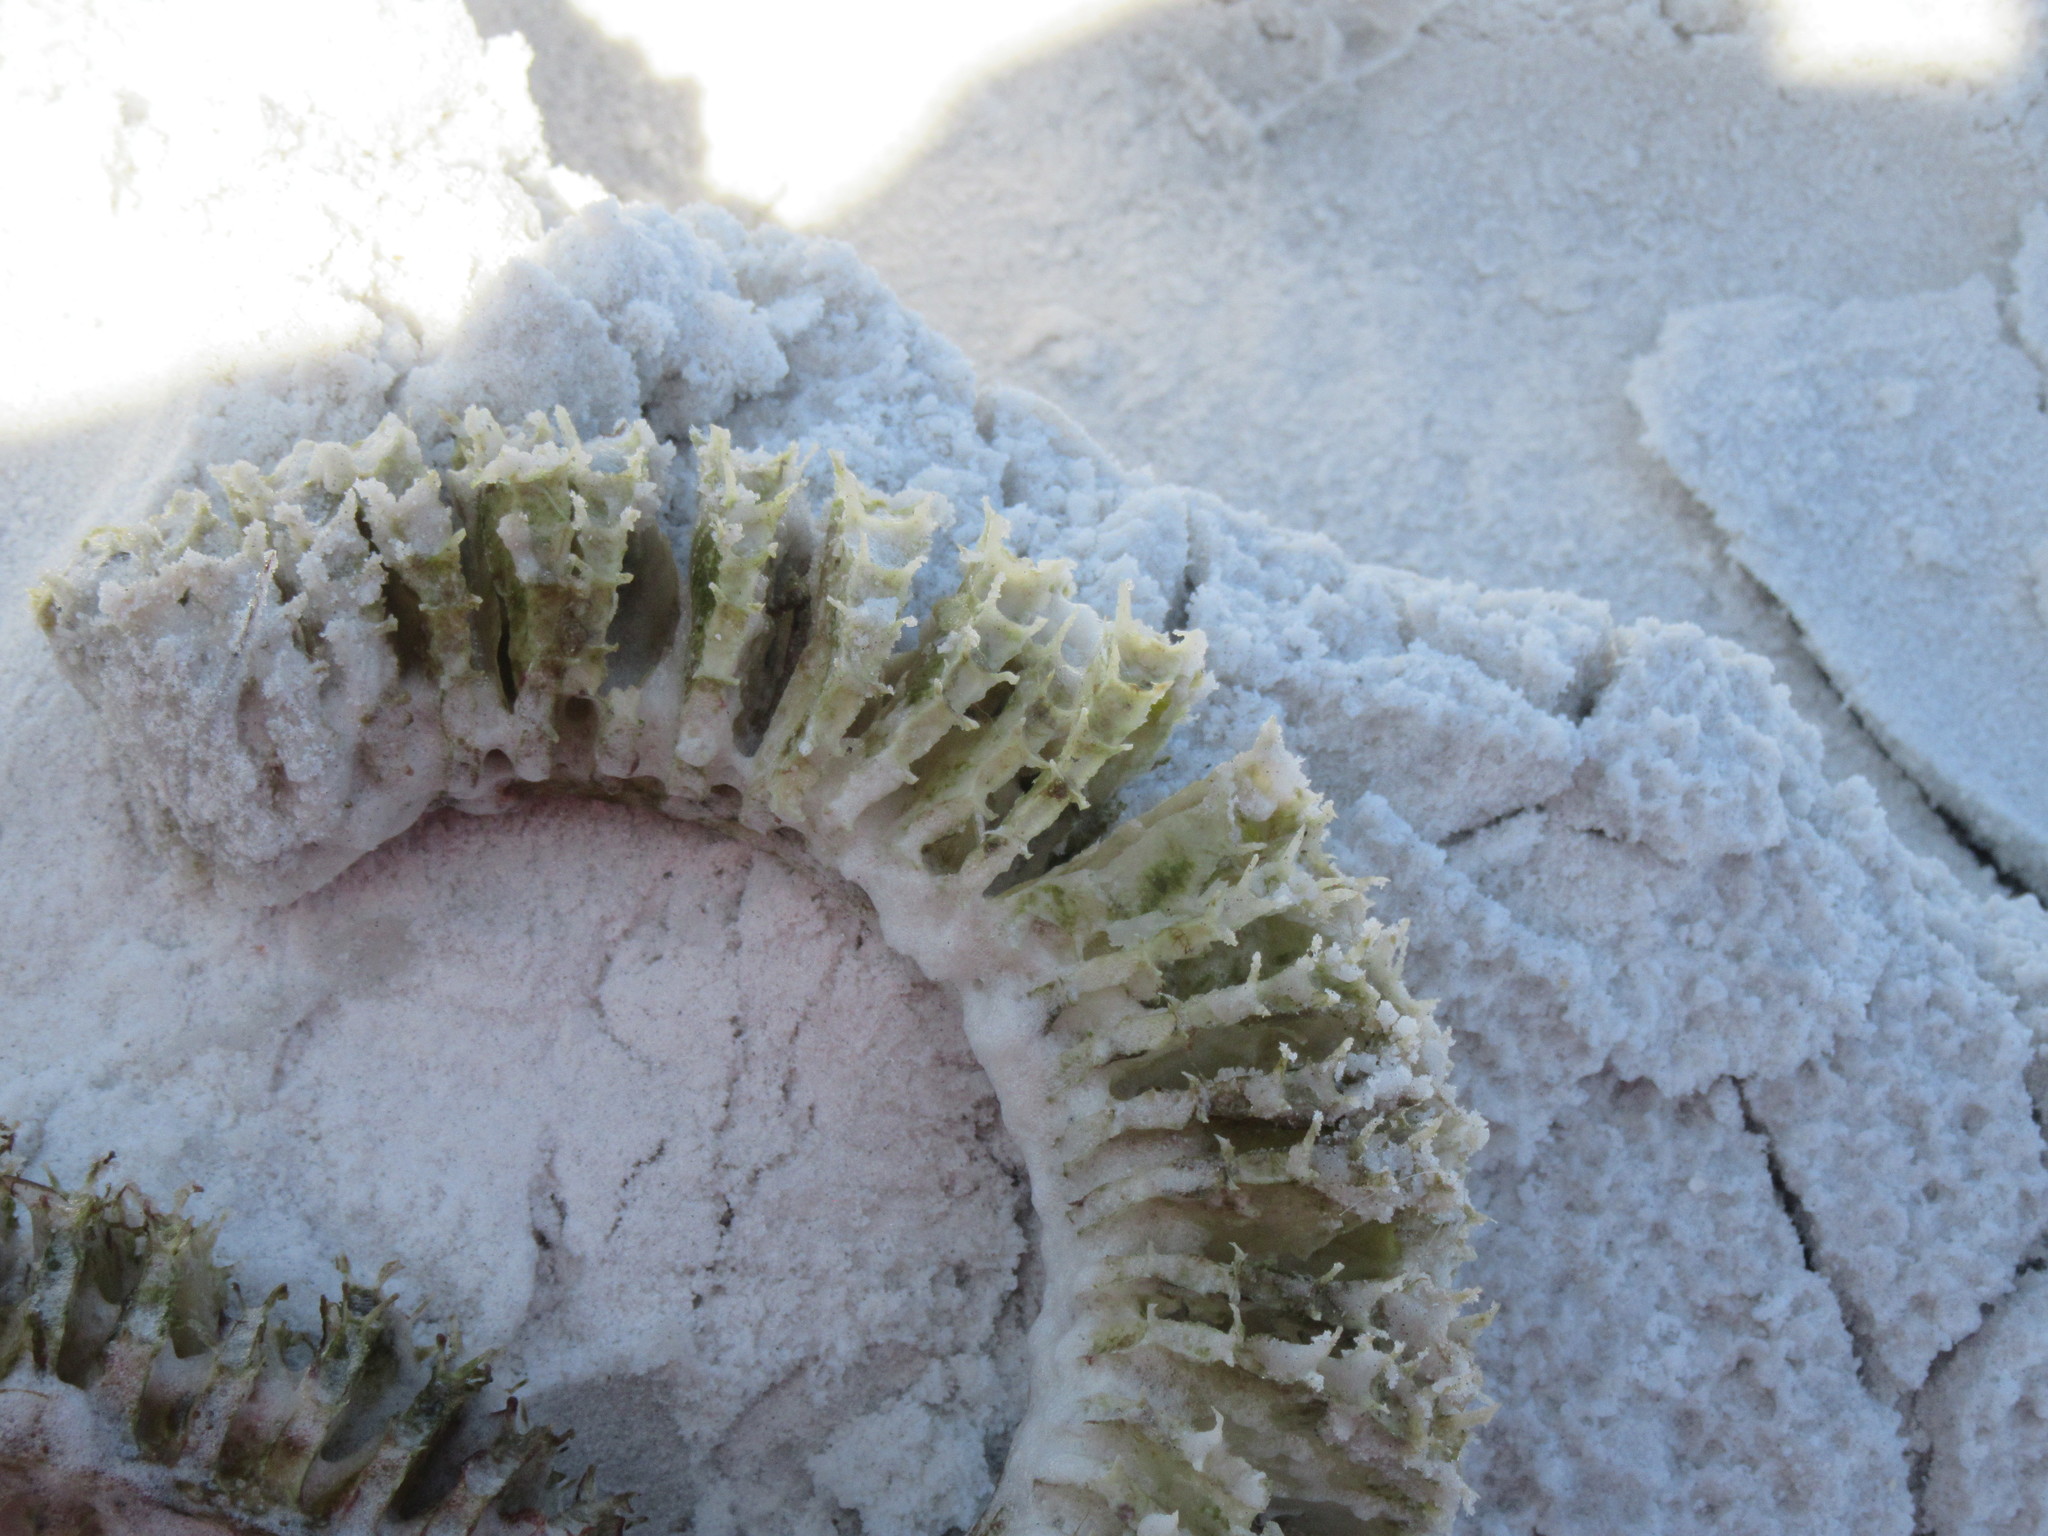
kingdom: Animalia
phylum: Mollusca
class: Gastropoda
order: Neogastropoda
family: Busyconidae
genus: Fulguropsis
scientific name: Fulguropsis pyruloides
